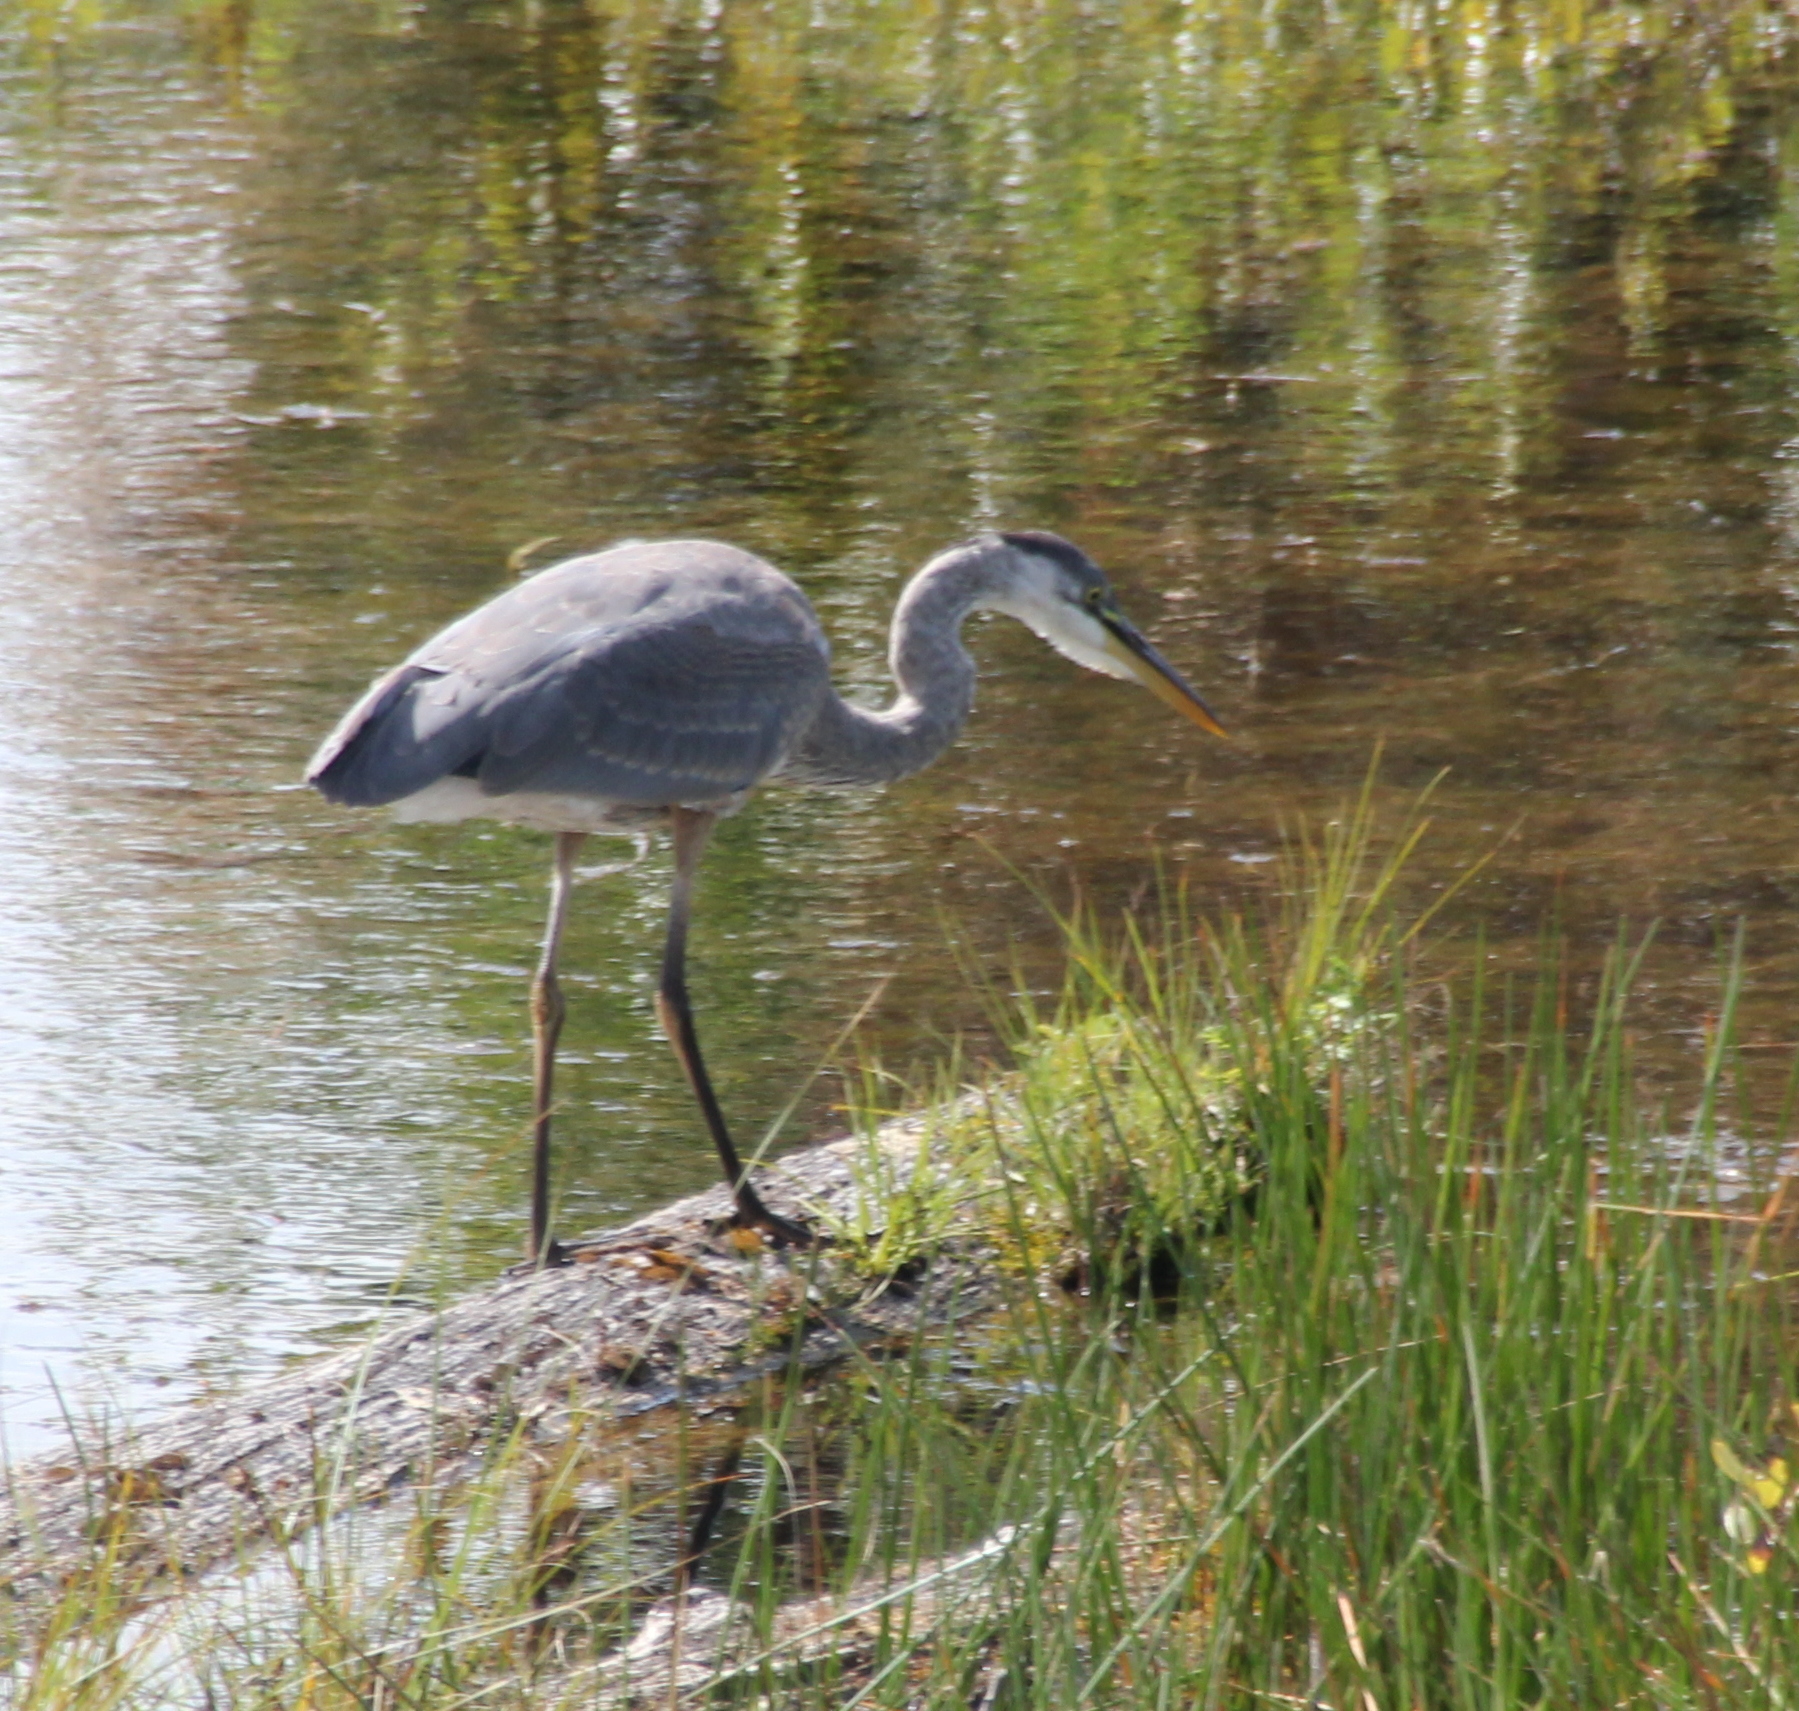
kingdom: Animalia
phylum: Chordata
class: Aves
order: Pelecaniformes
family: Ardeidae
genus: Ardea
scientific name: Ardea herodias
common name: Great blue heron
